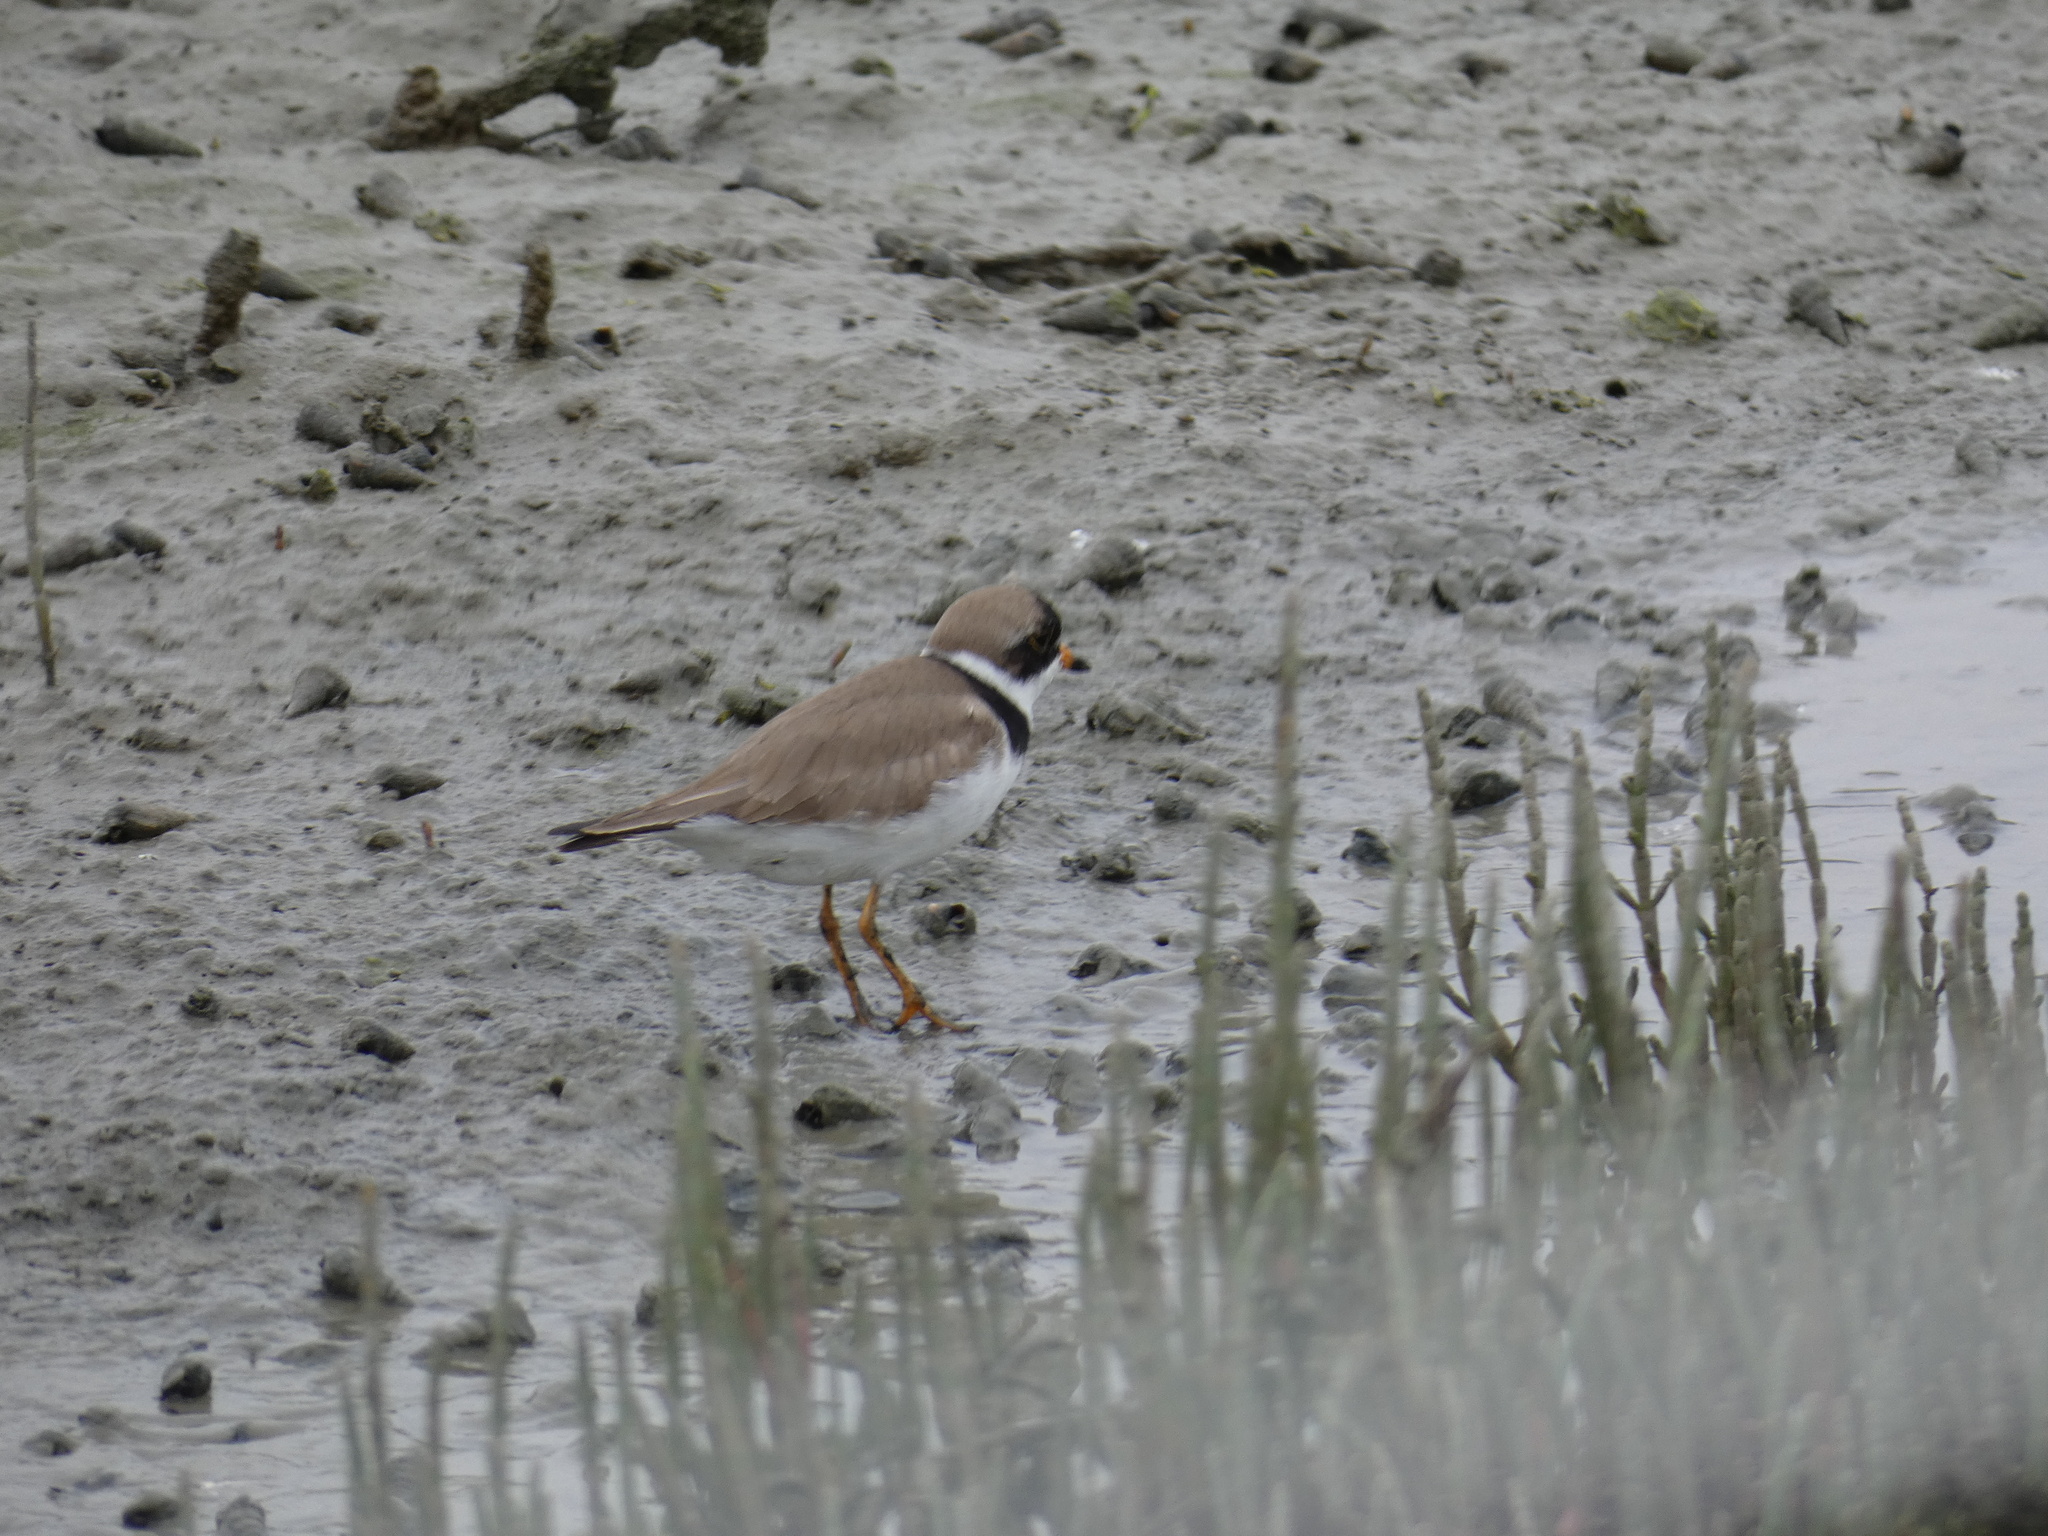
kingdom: Animalia
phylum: Chordata
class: Aves
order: Charadriiformes
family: Charadriidae
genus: Charadrius
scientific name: Charadrius semipalmatus
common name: Semipalmated plover
